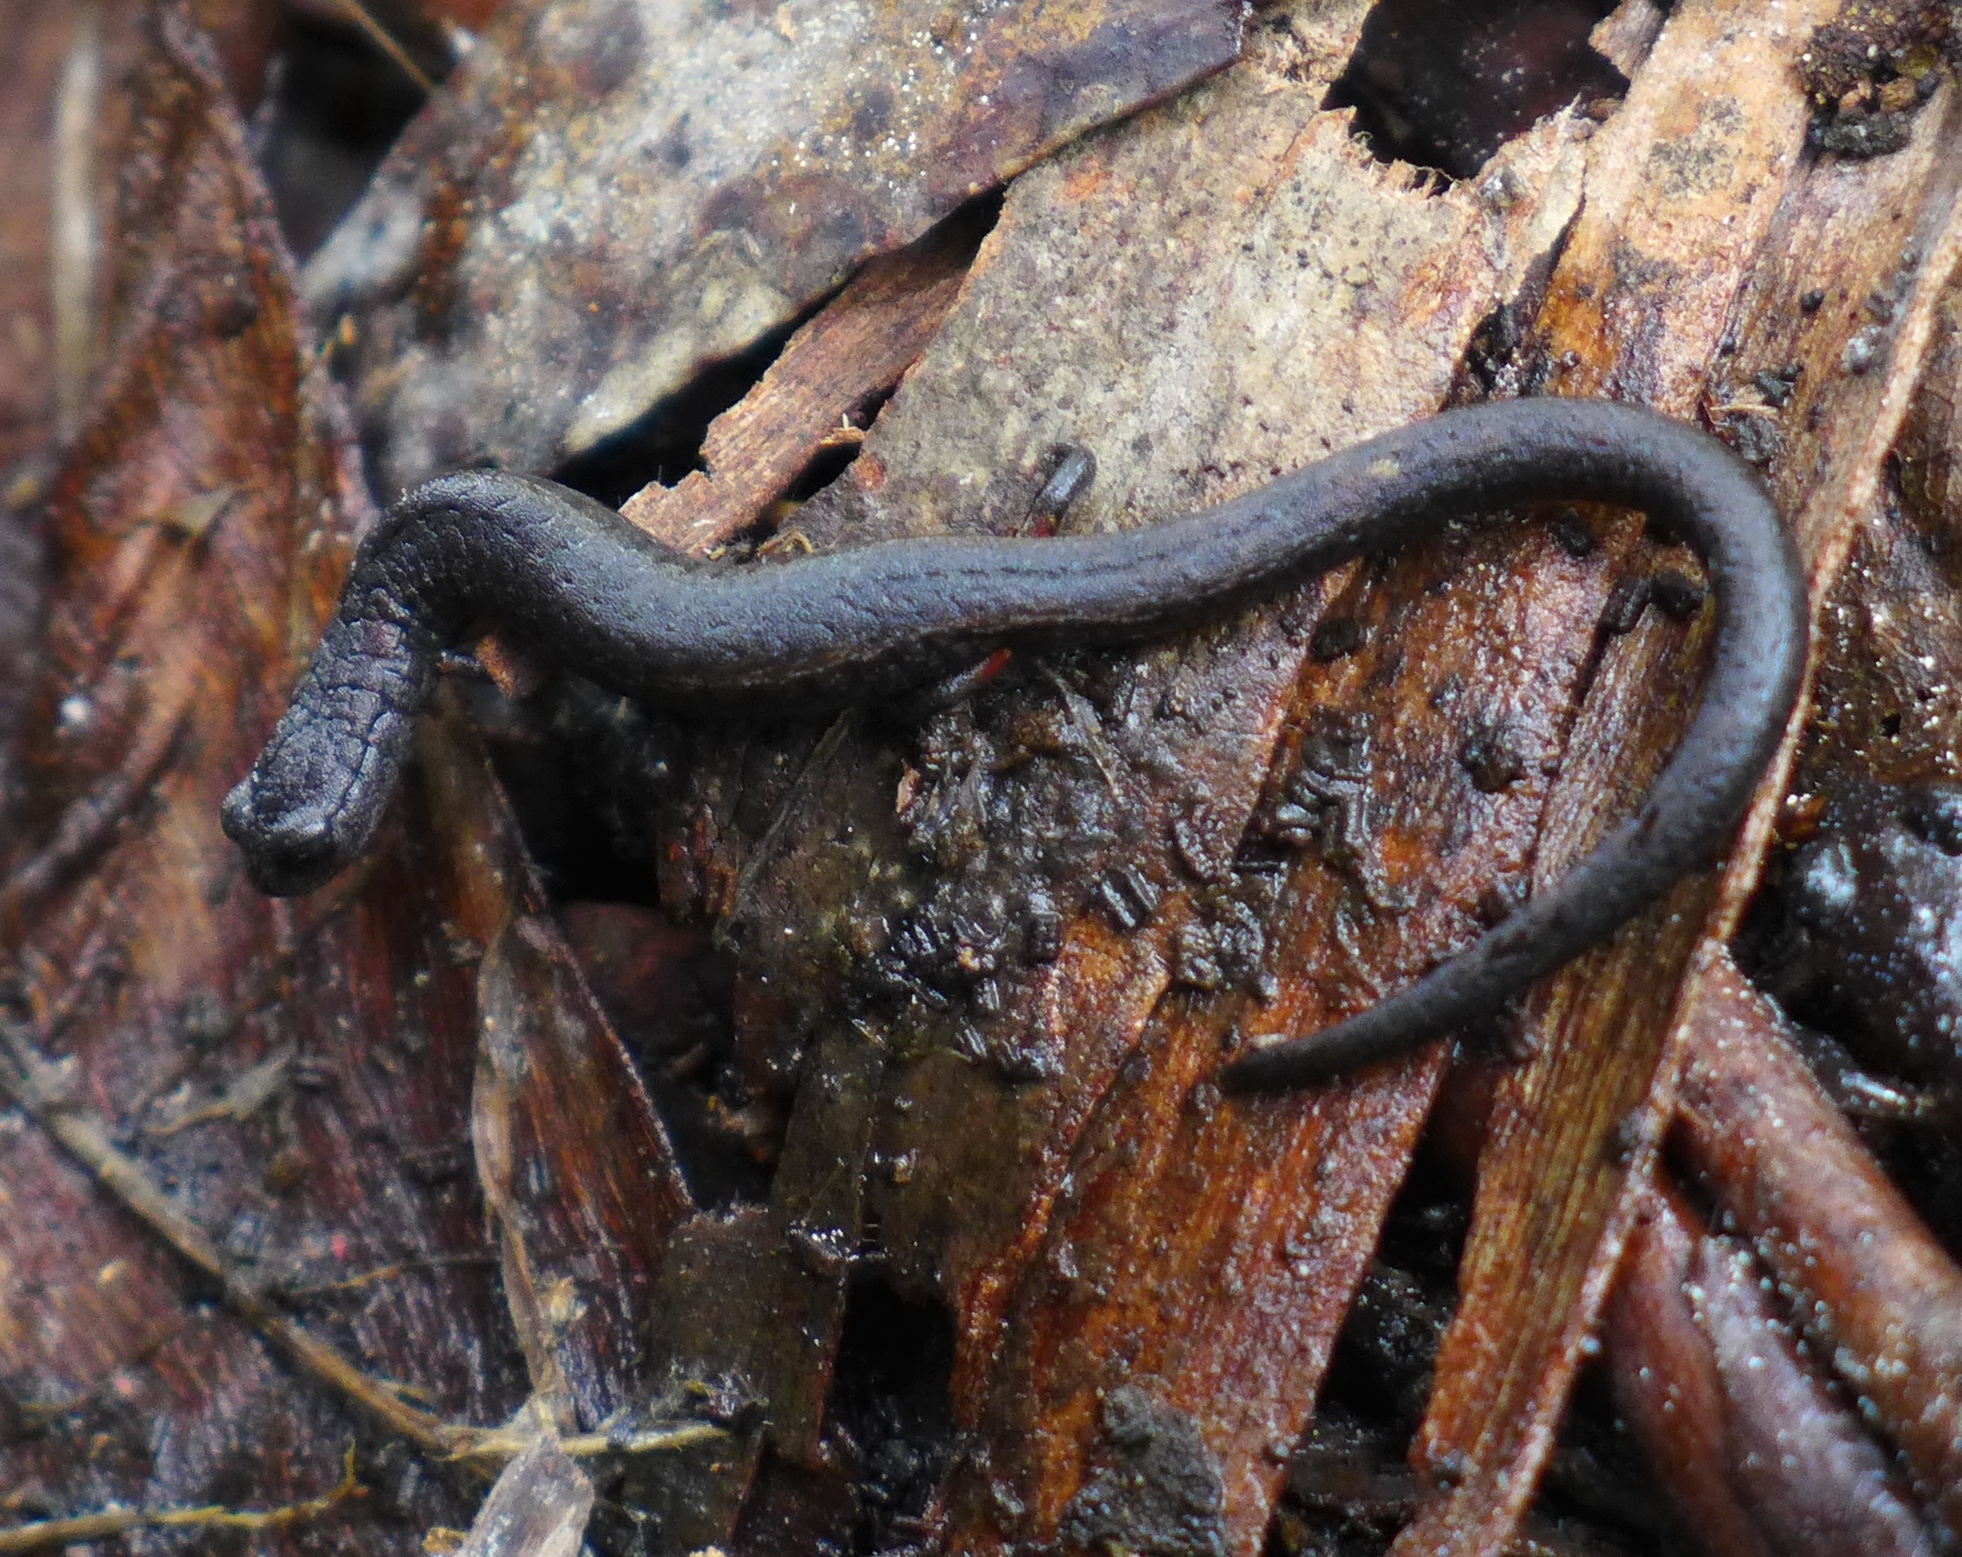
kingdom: Animalia
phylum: Chordata
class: Amphibia
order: Caudata
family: Plethodontidae
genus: Batrachoseps
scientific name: Batrachoseps attenuatus
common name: California slender salamander
